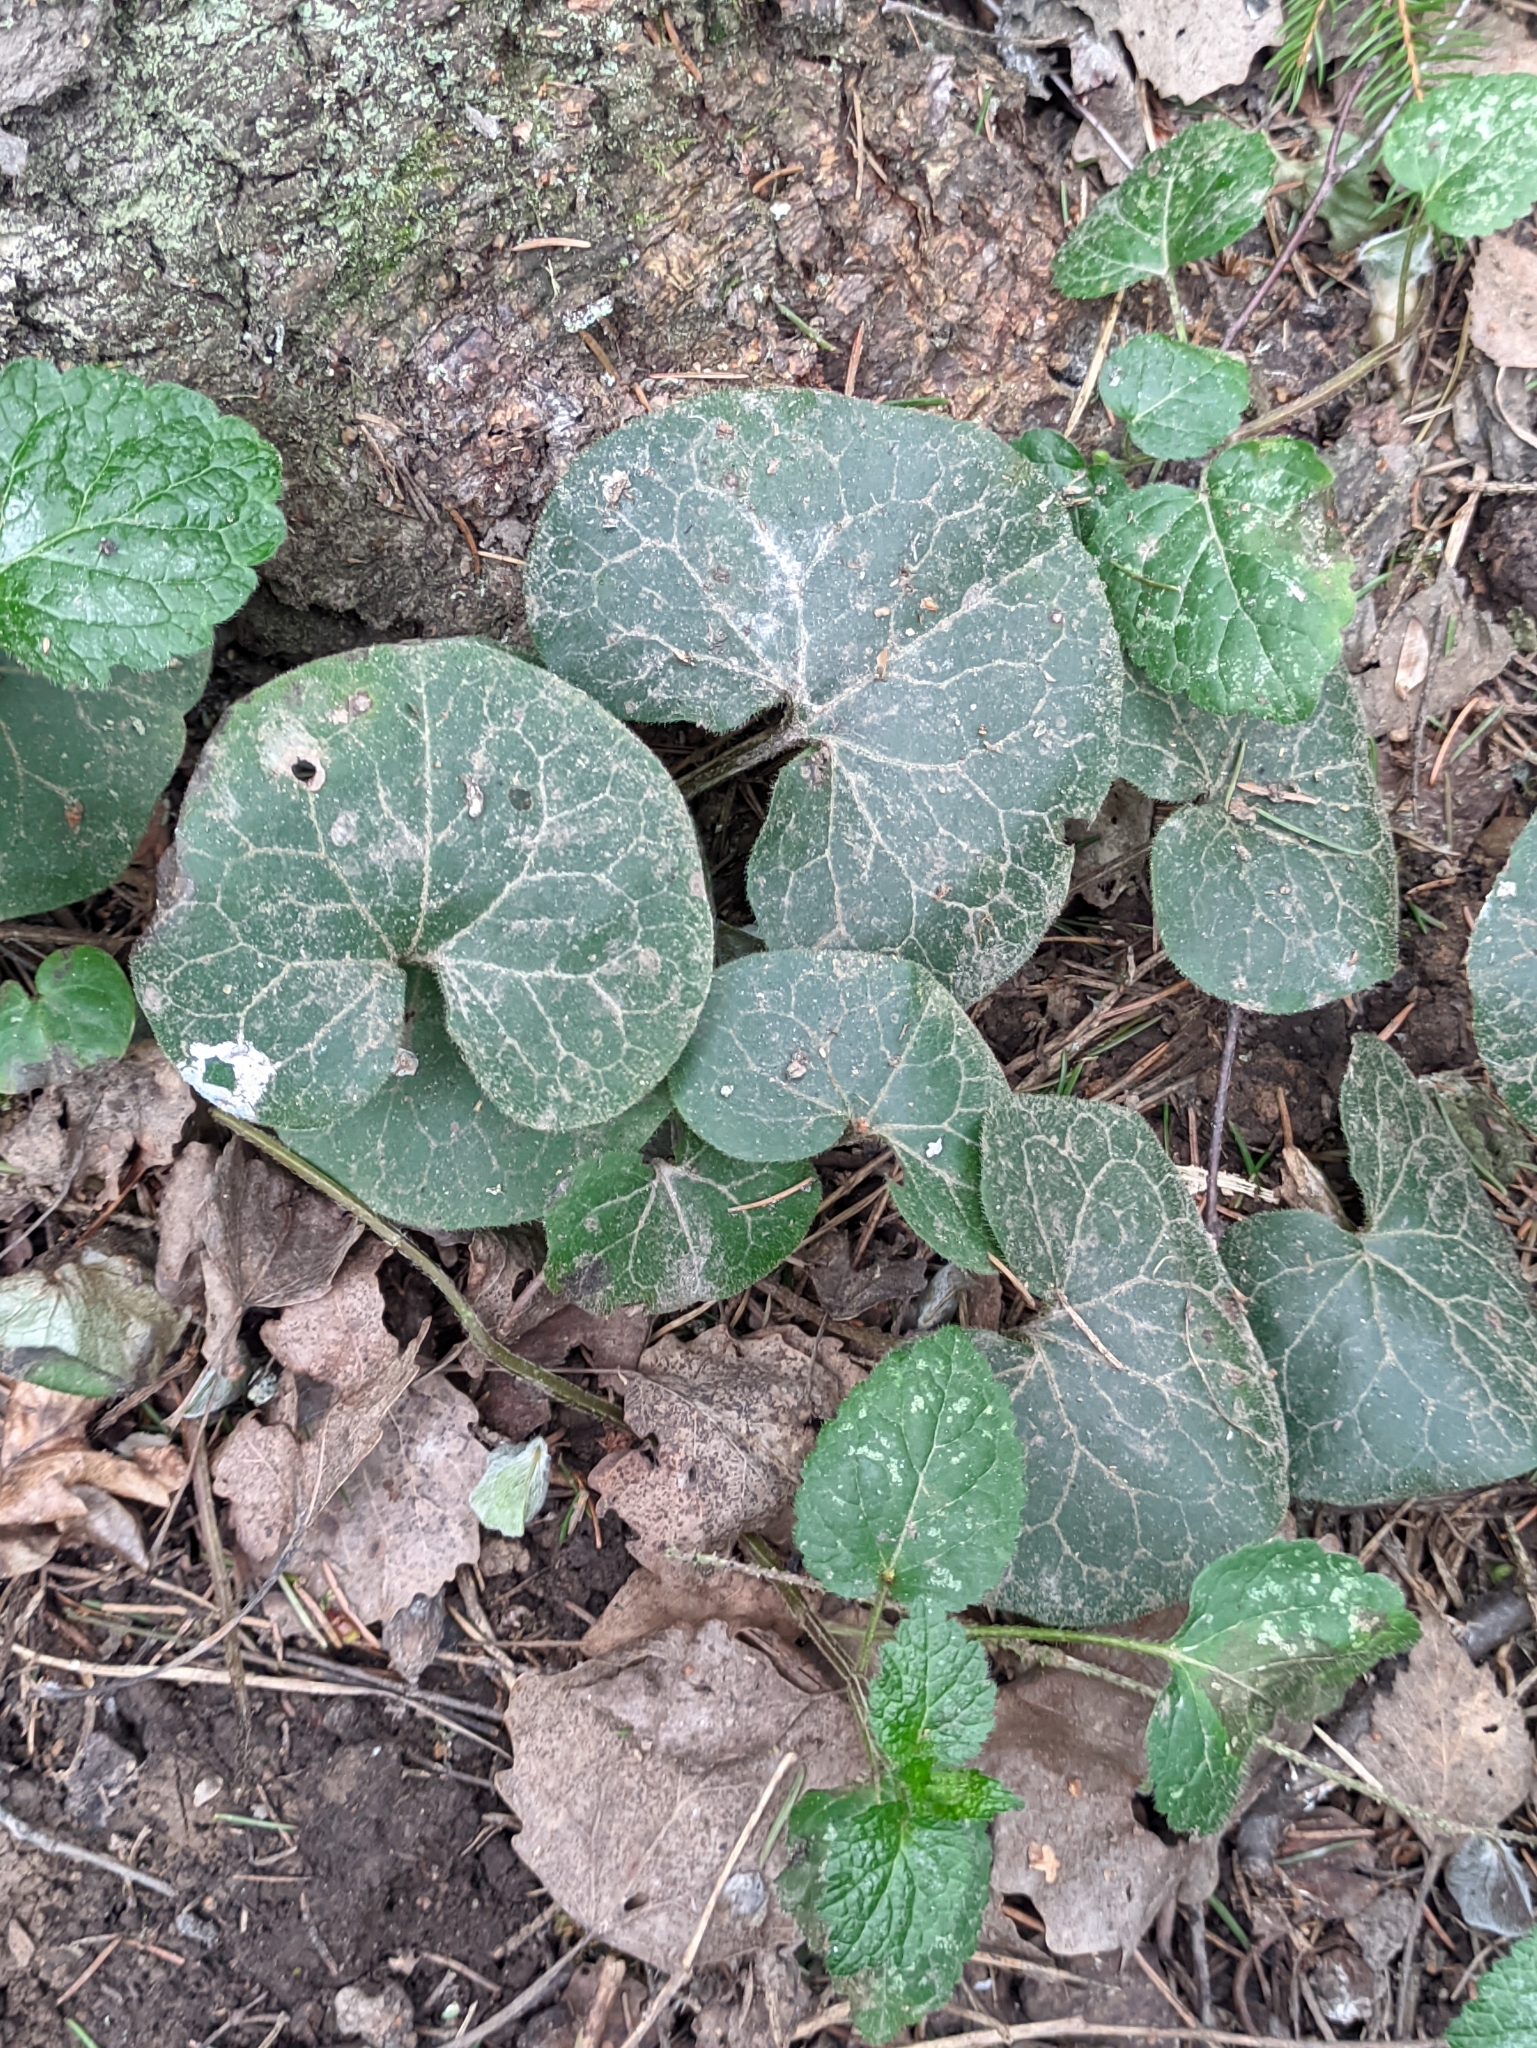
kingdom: Plantae
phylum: Tracheophyta
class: Magnoliopsida
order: Piperales
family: Aristolochiaceae
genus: Asarum
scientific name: Asarum europaeum
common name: Asarabacca
